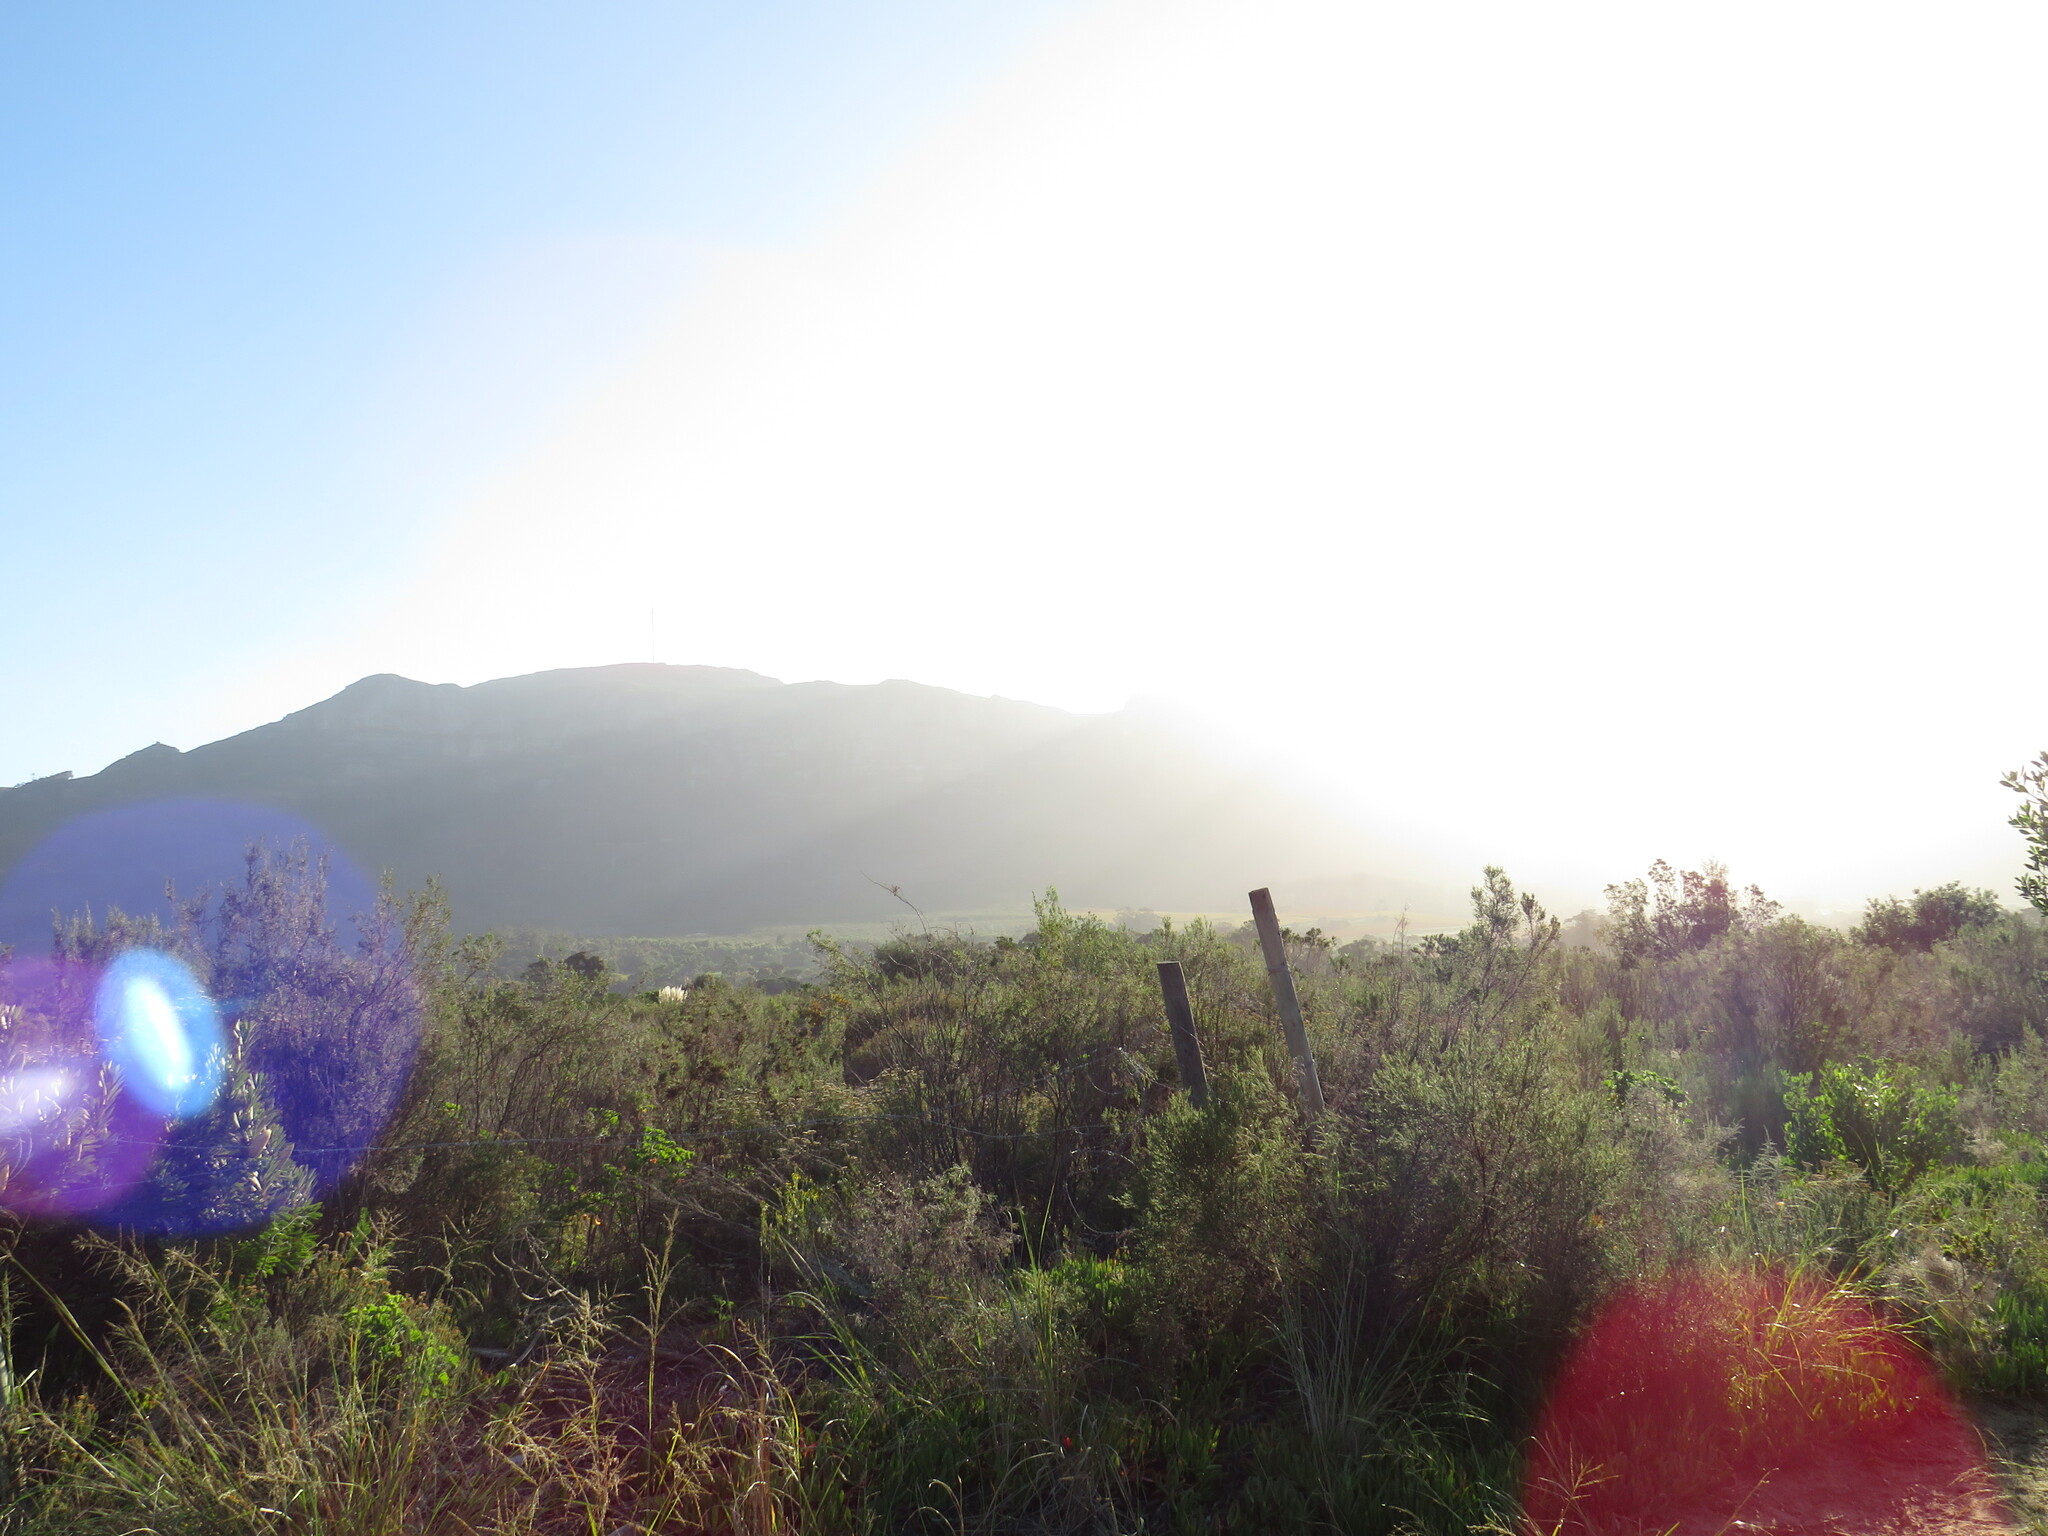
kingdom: Plantae
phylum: Tracheophyta
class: Liliopsida
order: Poales
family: Poaceae
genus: Eragrostis
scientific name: Eragrostis curvula
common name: African love-grass
